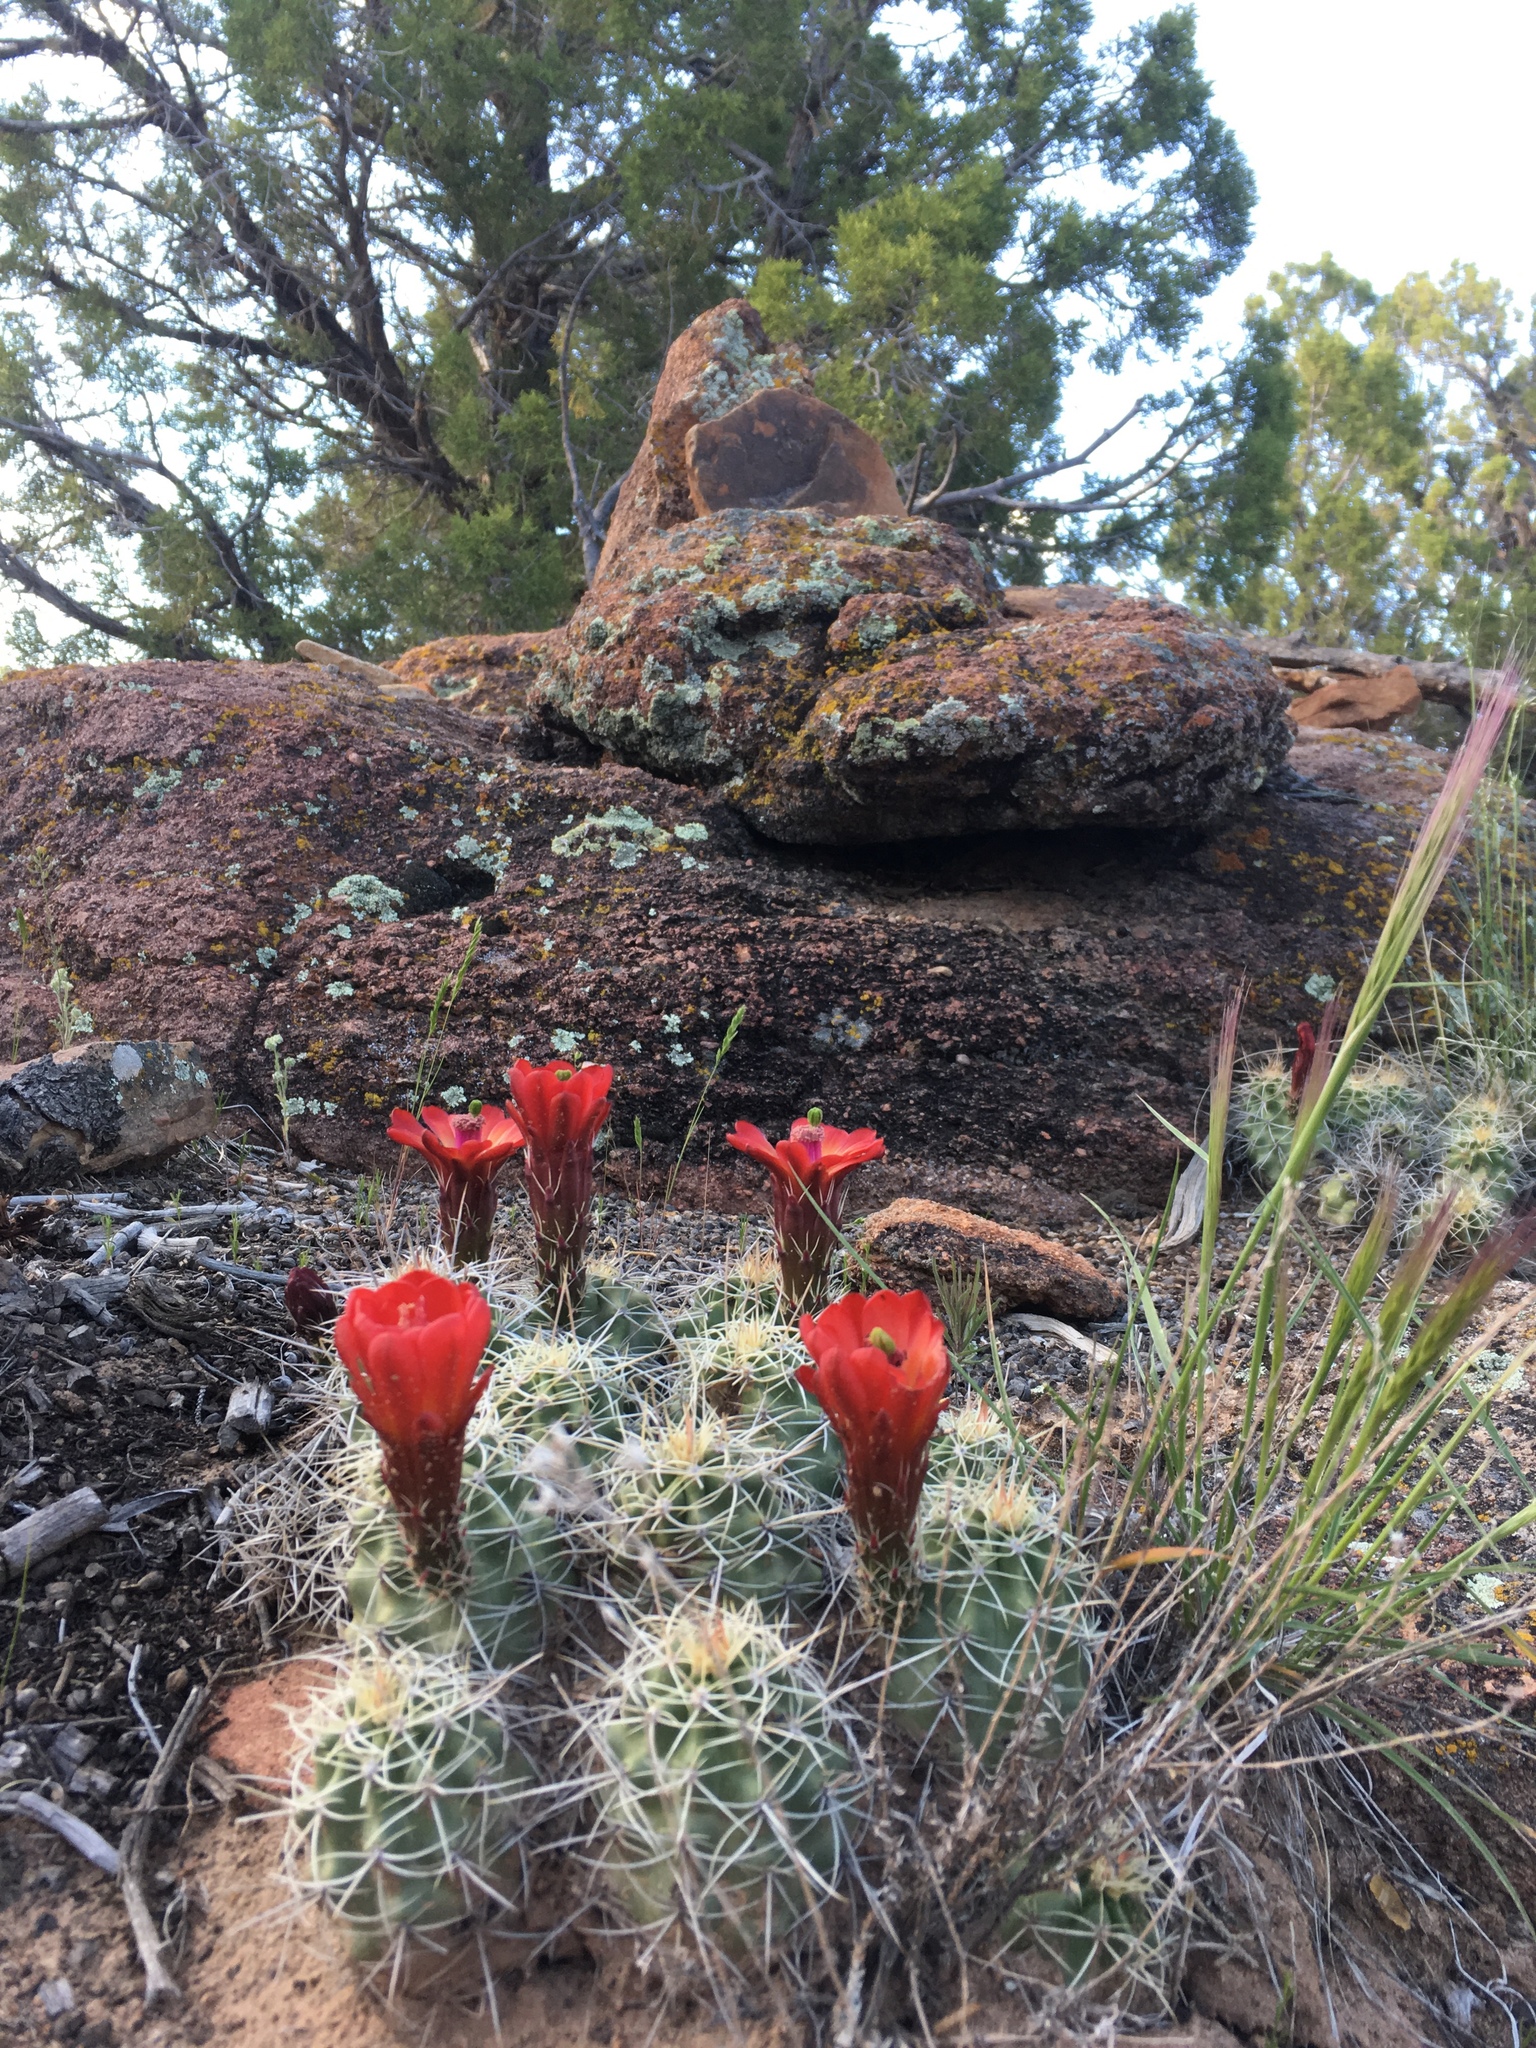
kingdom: Plantae
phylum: Tracheophyta
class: Magnoliopsida
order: Caryophyllales
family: Cactaceae
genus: Echinocereus
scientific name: Echinocereus triglochidiatus
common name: Claretcup hedgehog
